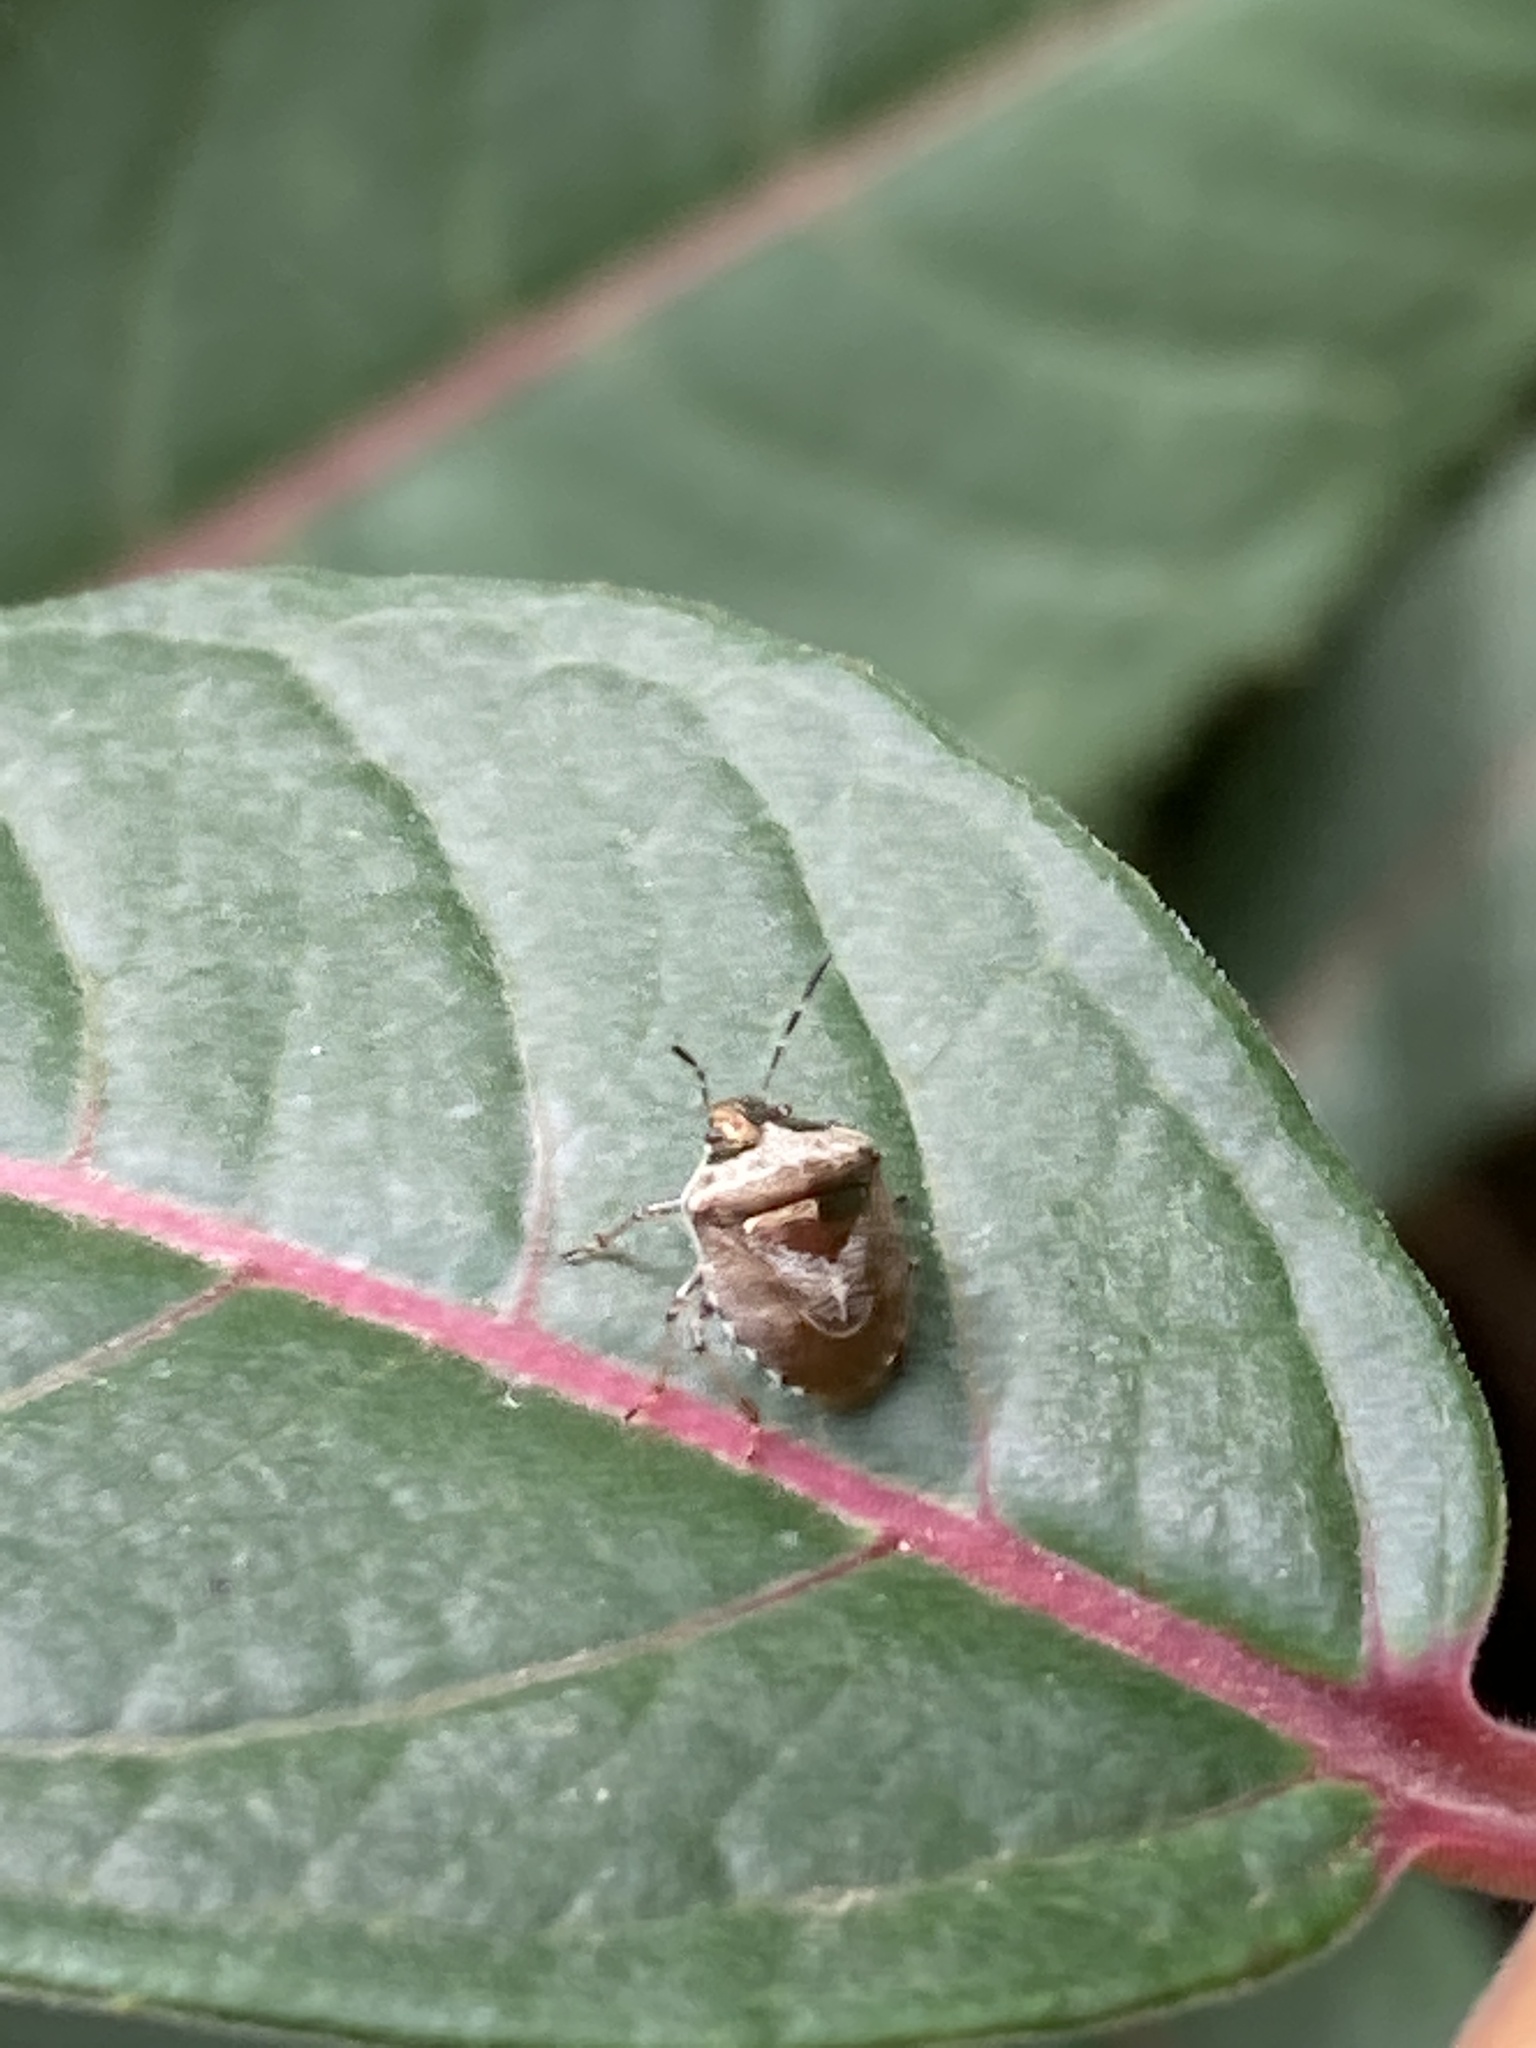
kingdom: Animalia
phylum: Arthropoda
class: Insecta
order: Hemiptera
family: Pentatomidae
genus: Eysarcoris
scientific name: Eysarcoris venustissimus
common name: Woundwort shieldbug
